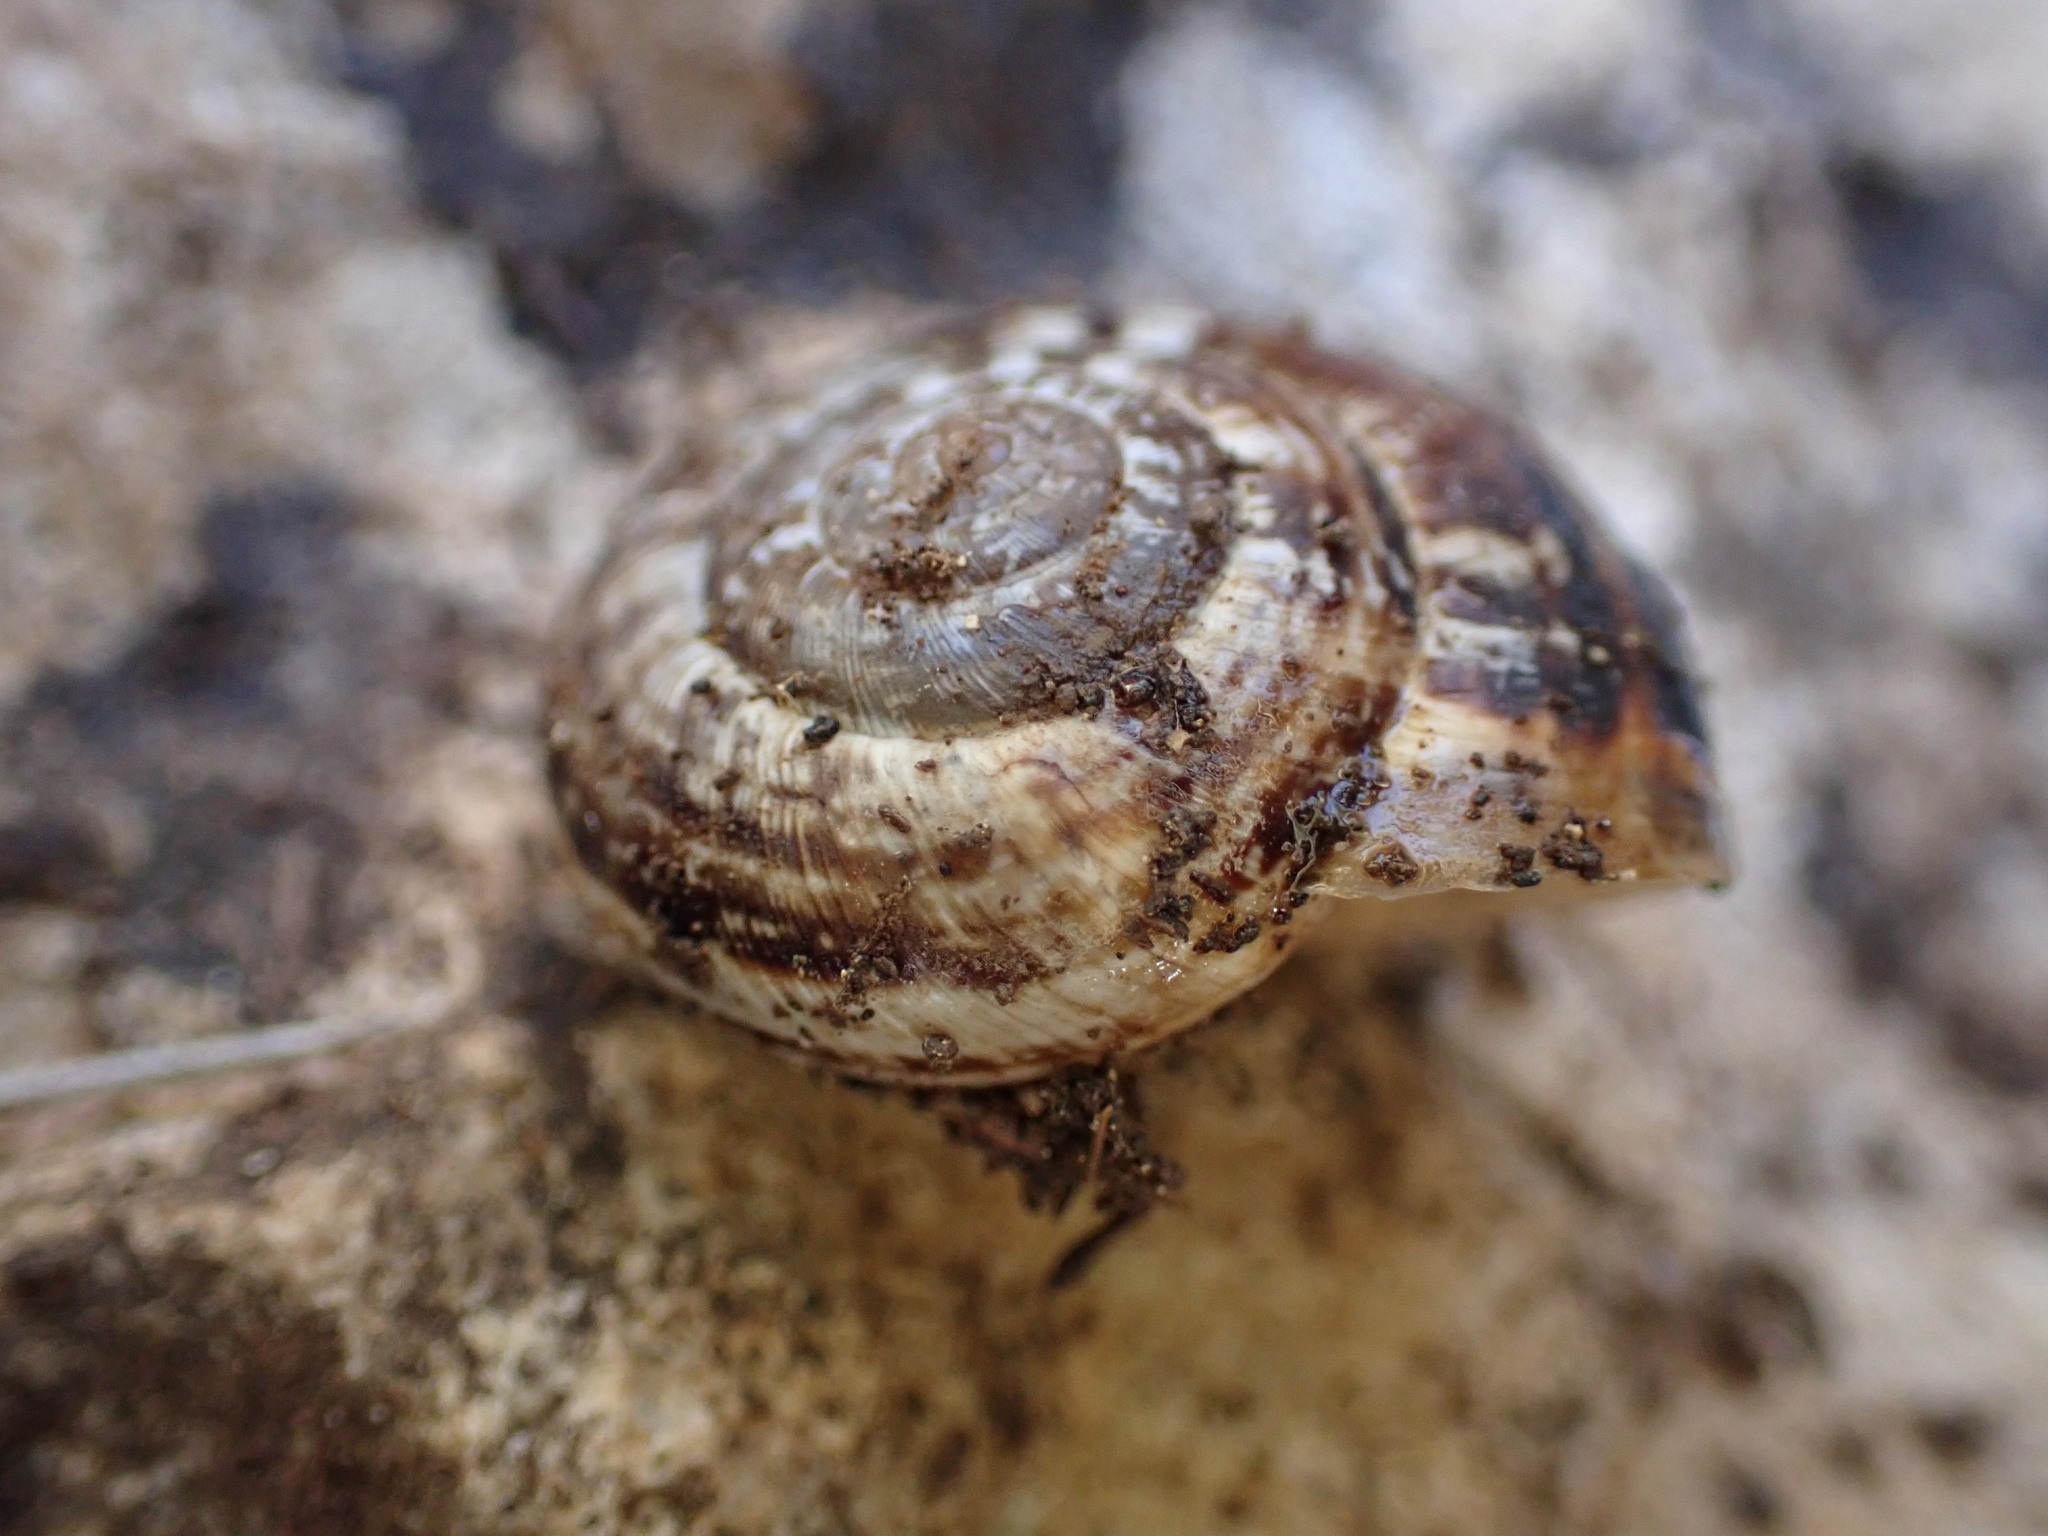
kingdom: Animalia
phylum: Mollusca
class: Gastropoda
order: Stylommatophora
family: Geomitridae
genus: Xerosecta
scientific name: Xerosecta cespitum
